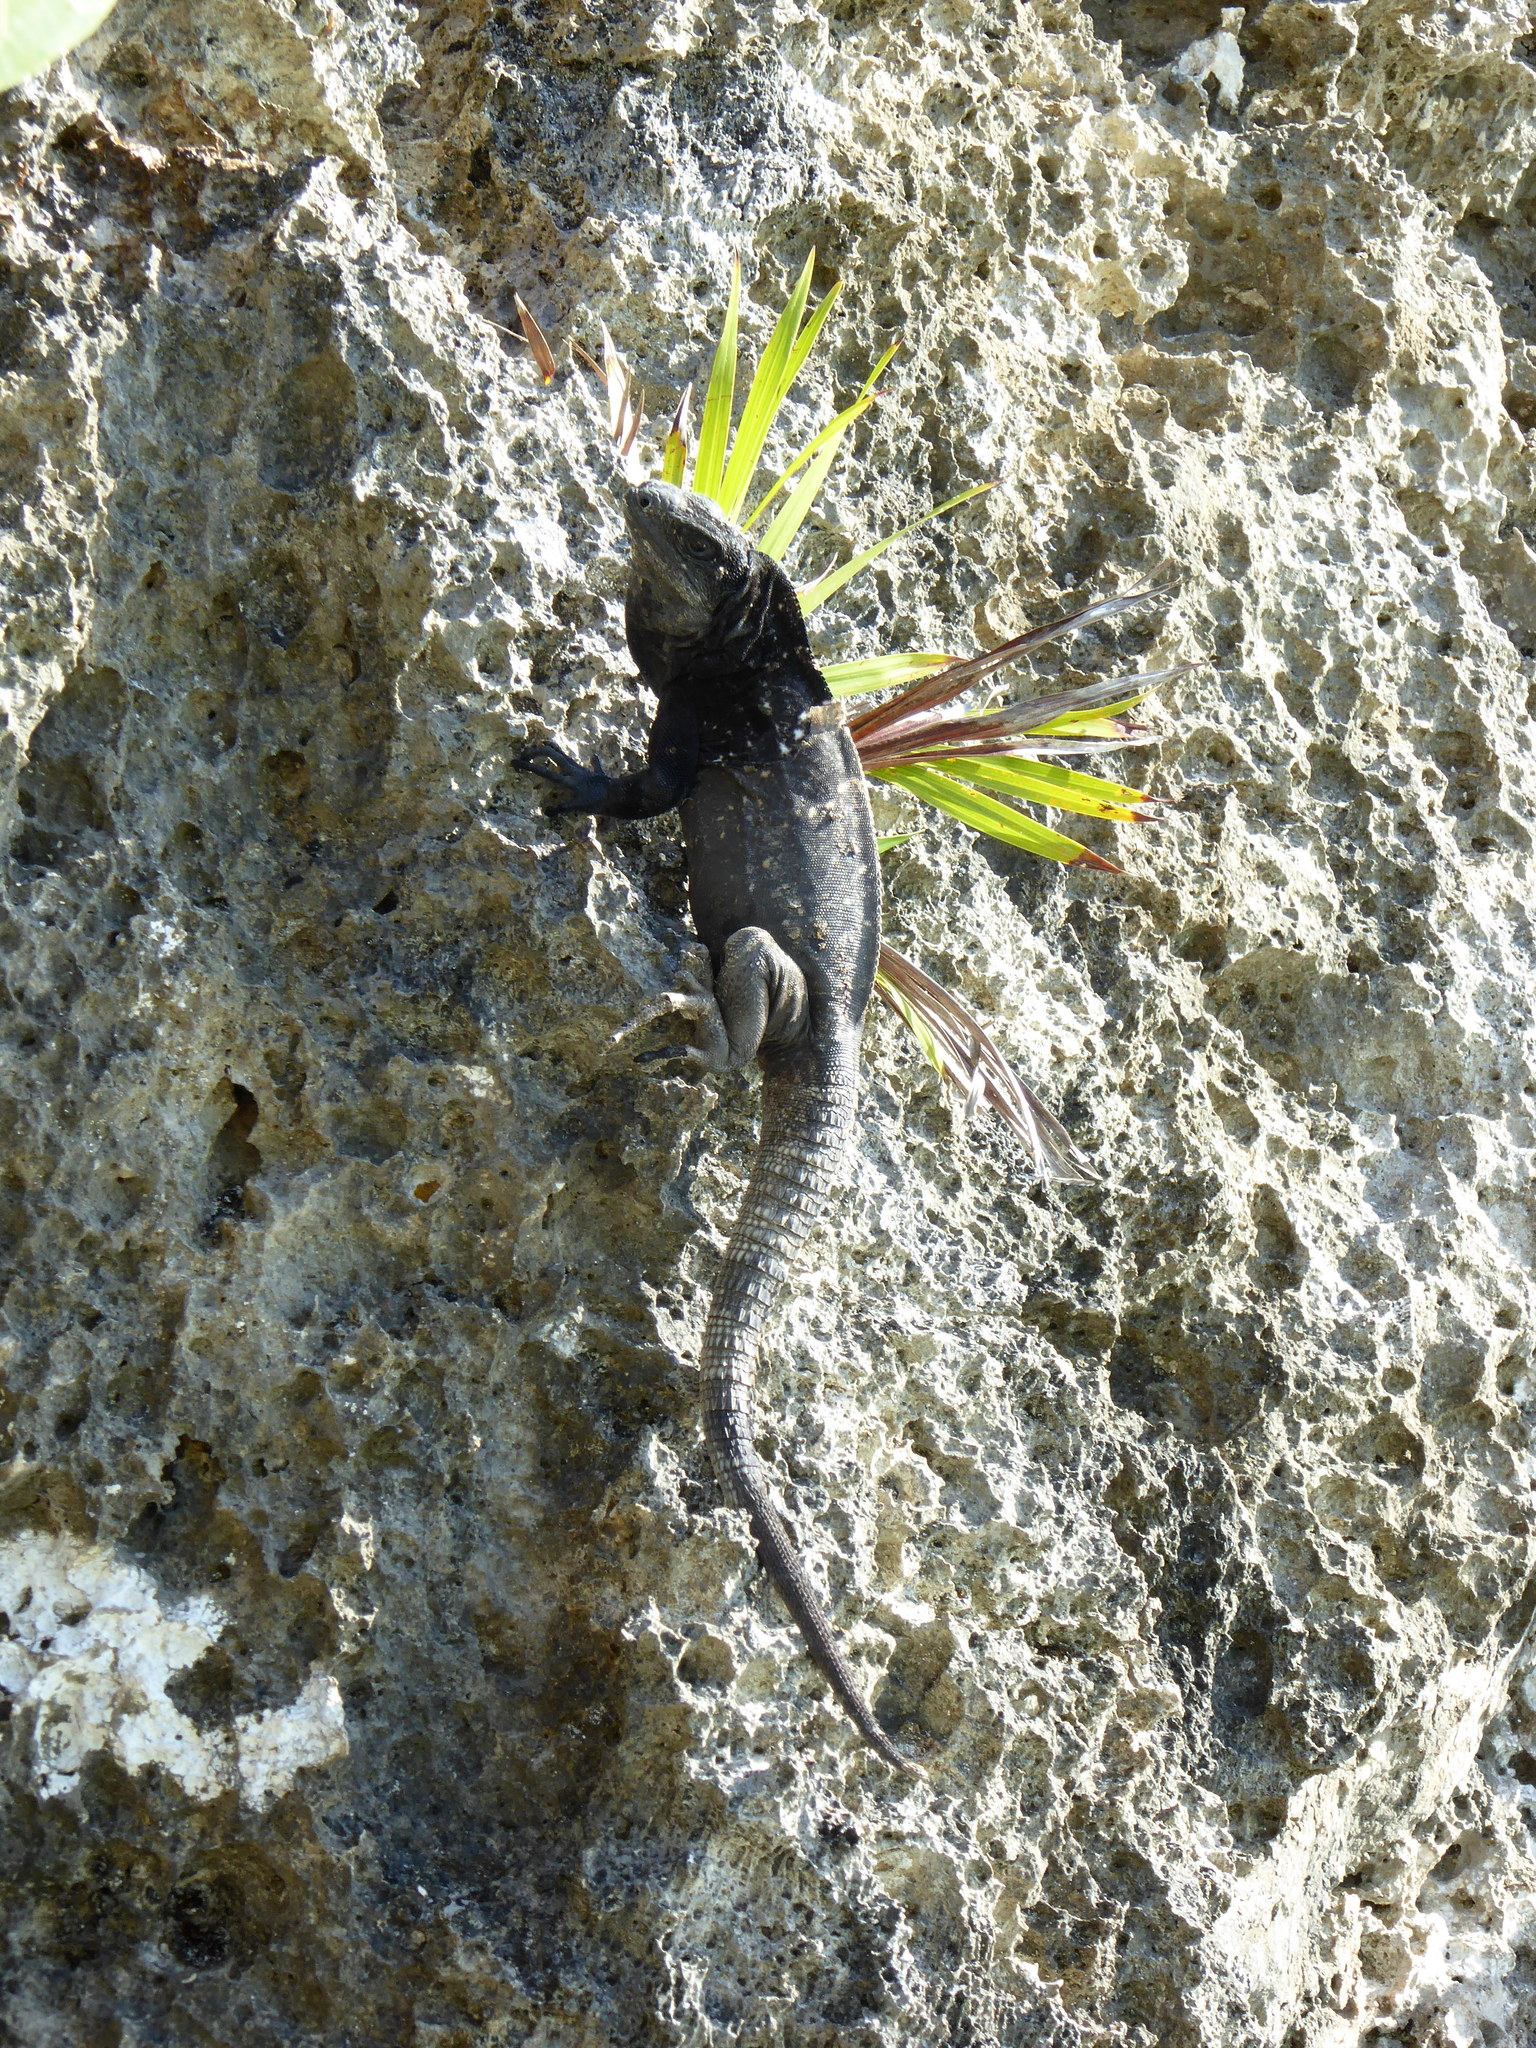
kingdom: Animalia
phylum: Chordata
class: Squamata
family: Iguanidae
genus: Ctenosaura
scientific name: Ctenosaura oedirhina
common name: Roatan spiny-tailed iguana
